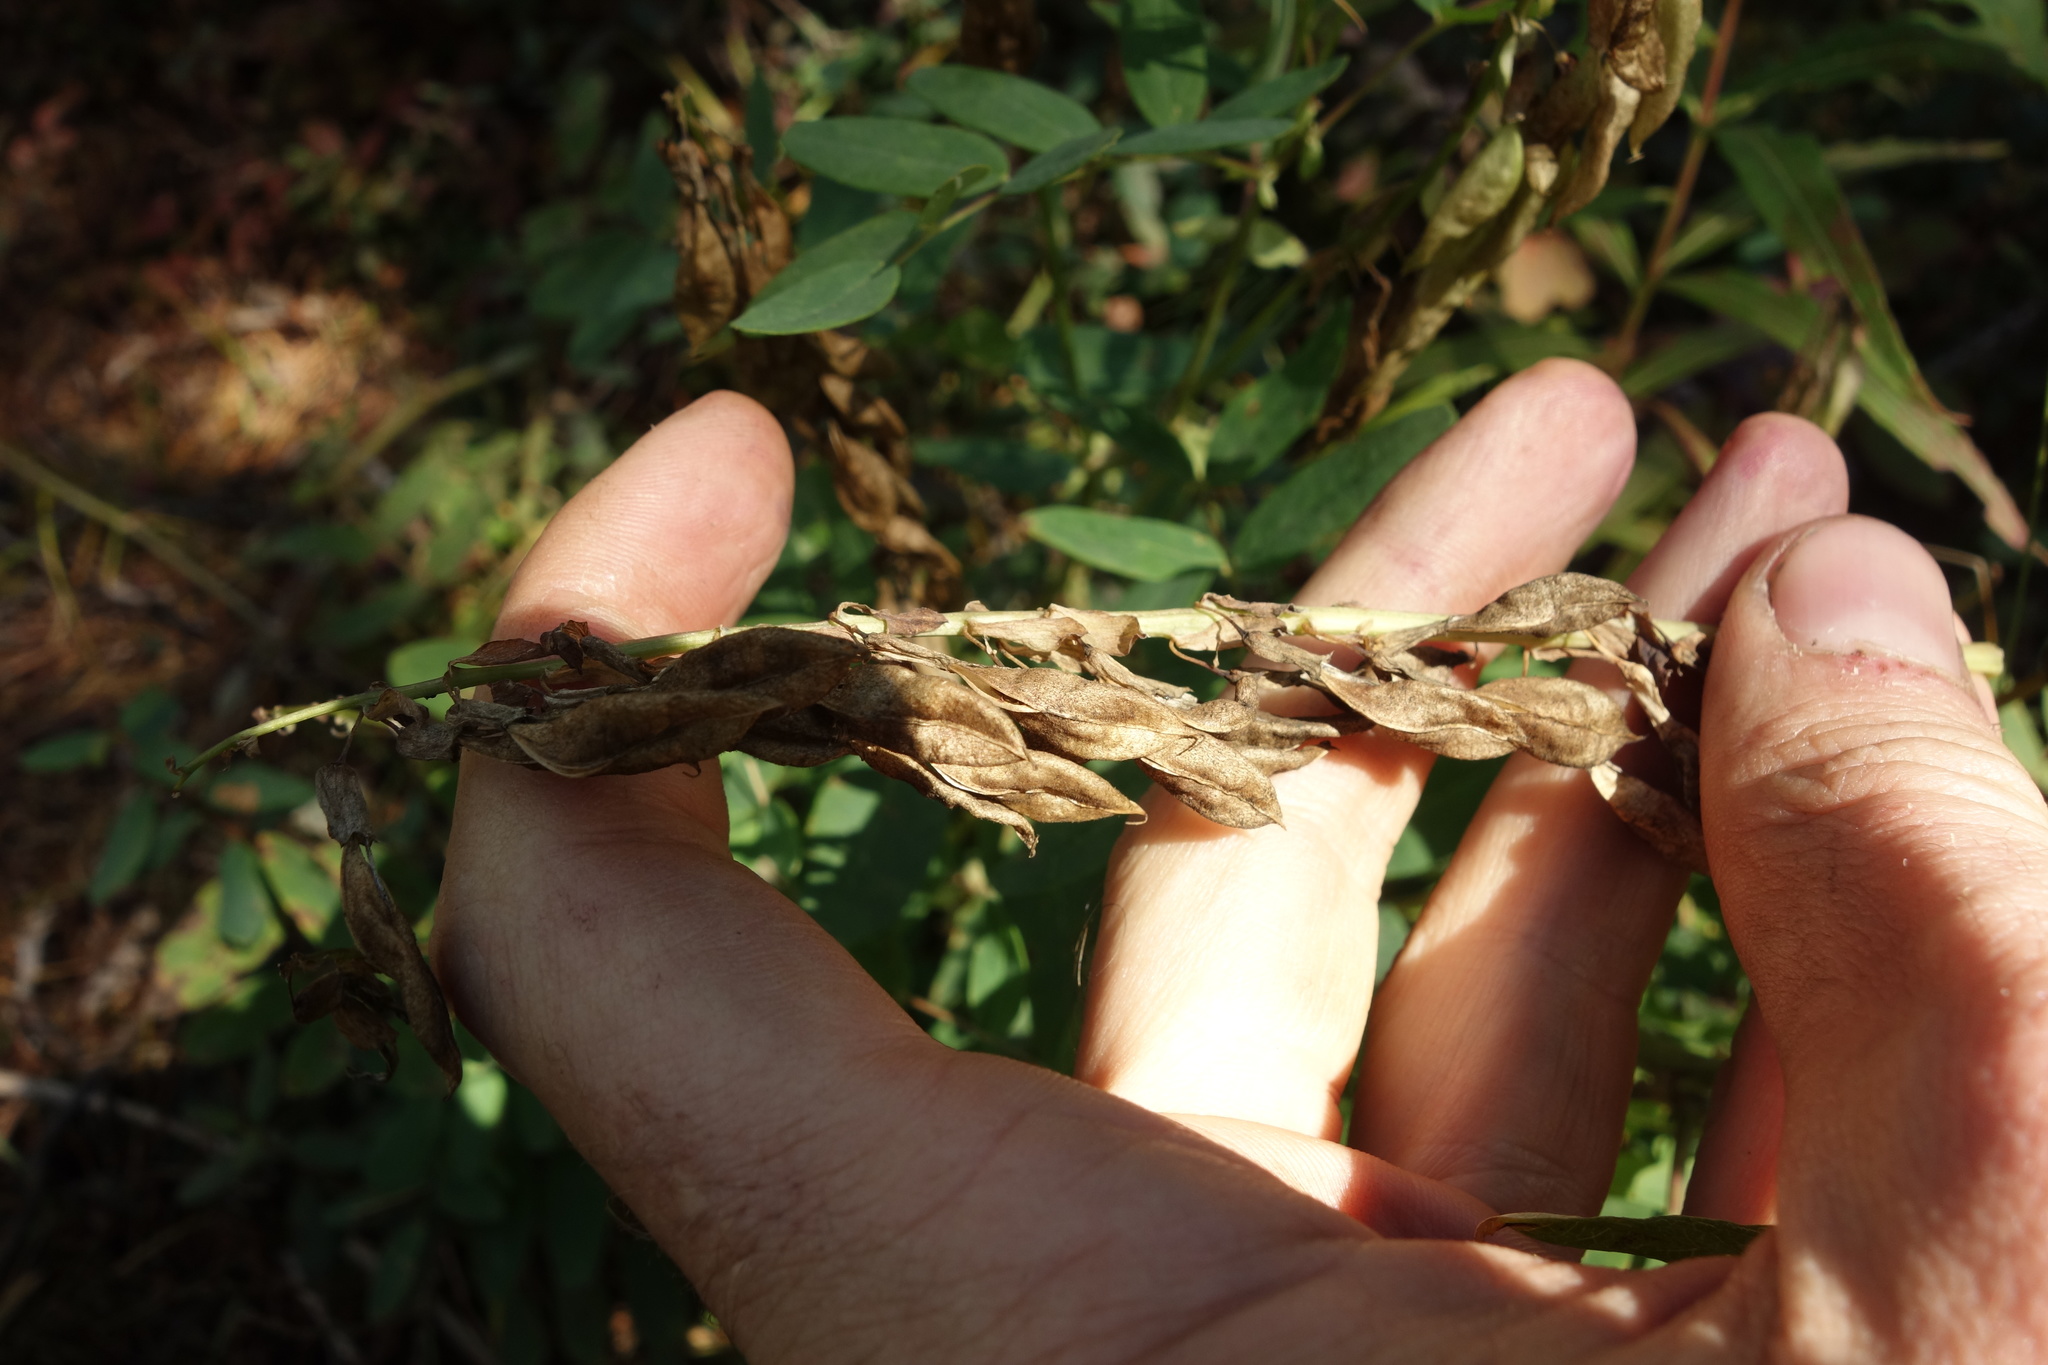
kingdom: Plantae
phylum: Tracheophyta
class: Magnoliopsida
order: Fabales
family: Fabaceae
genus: Astragalus
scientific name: Astragalus frigidus
